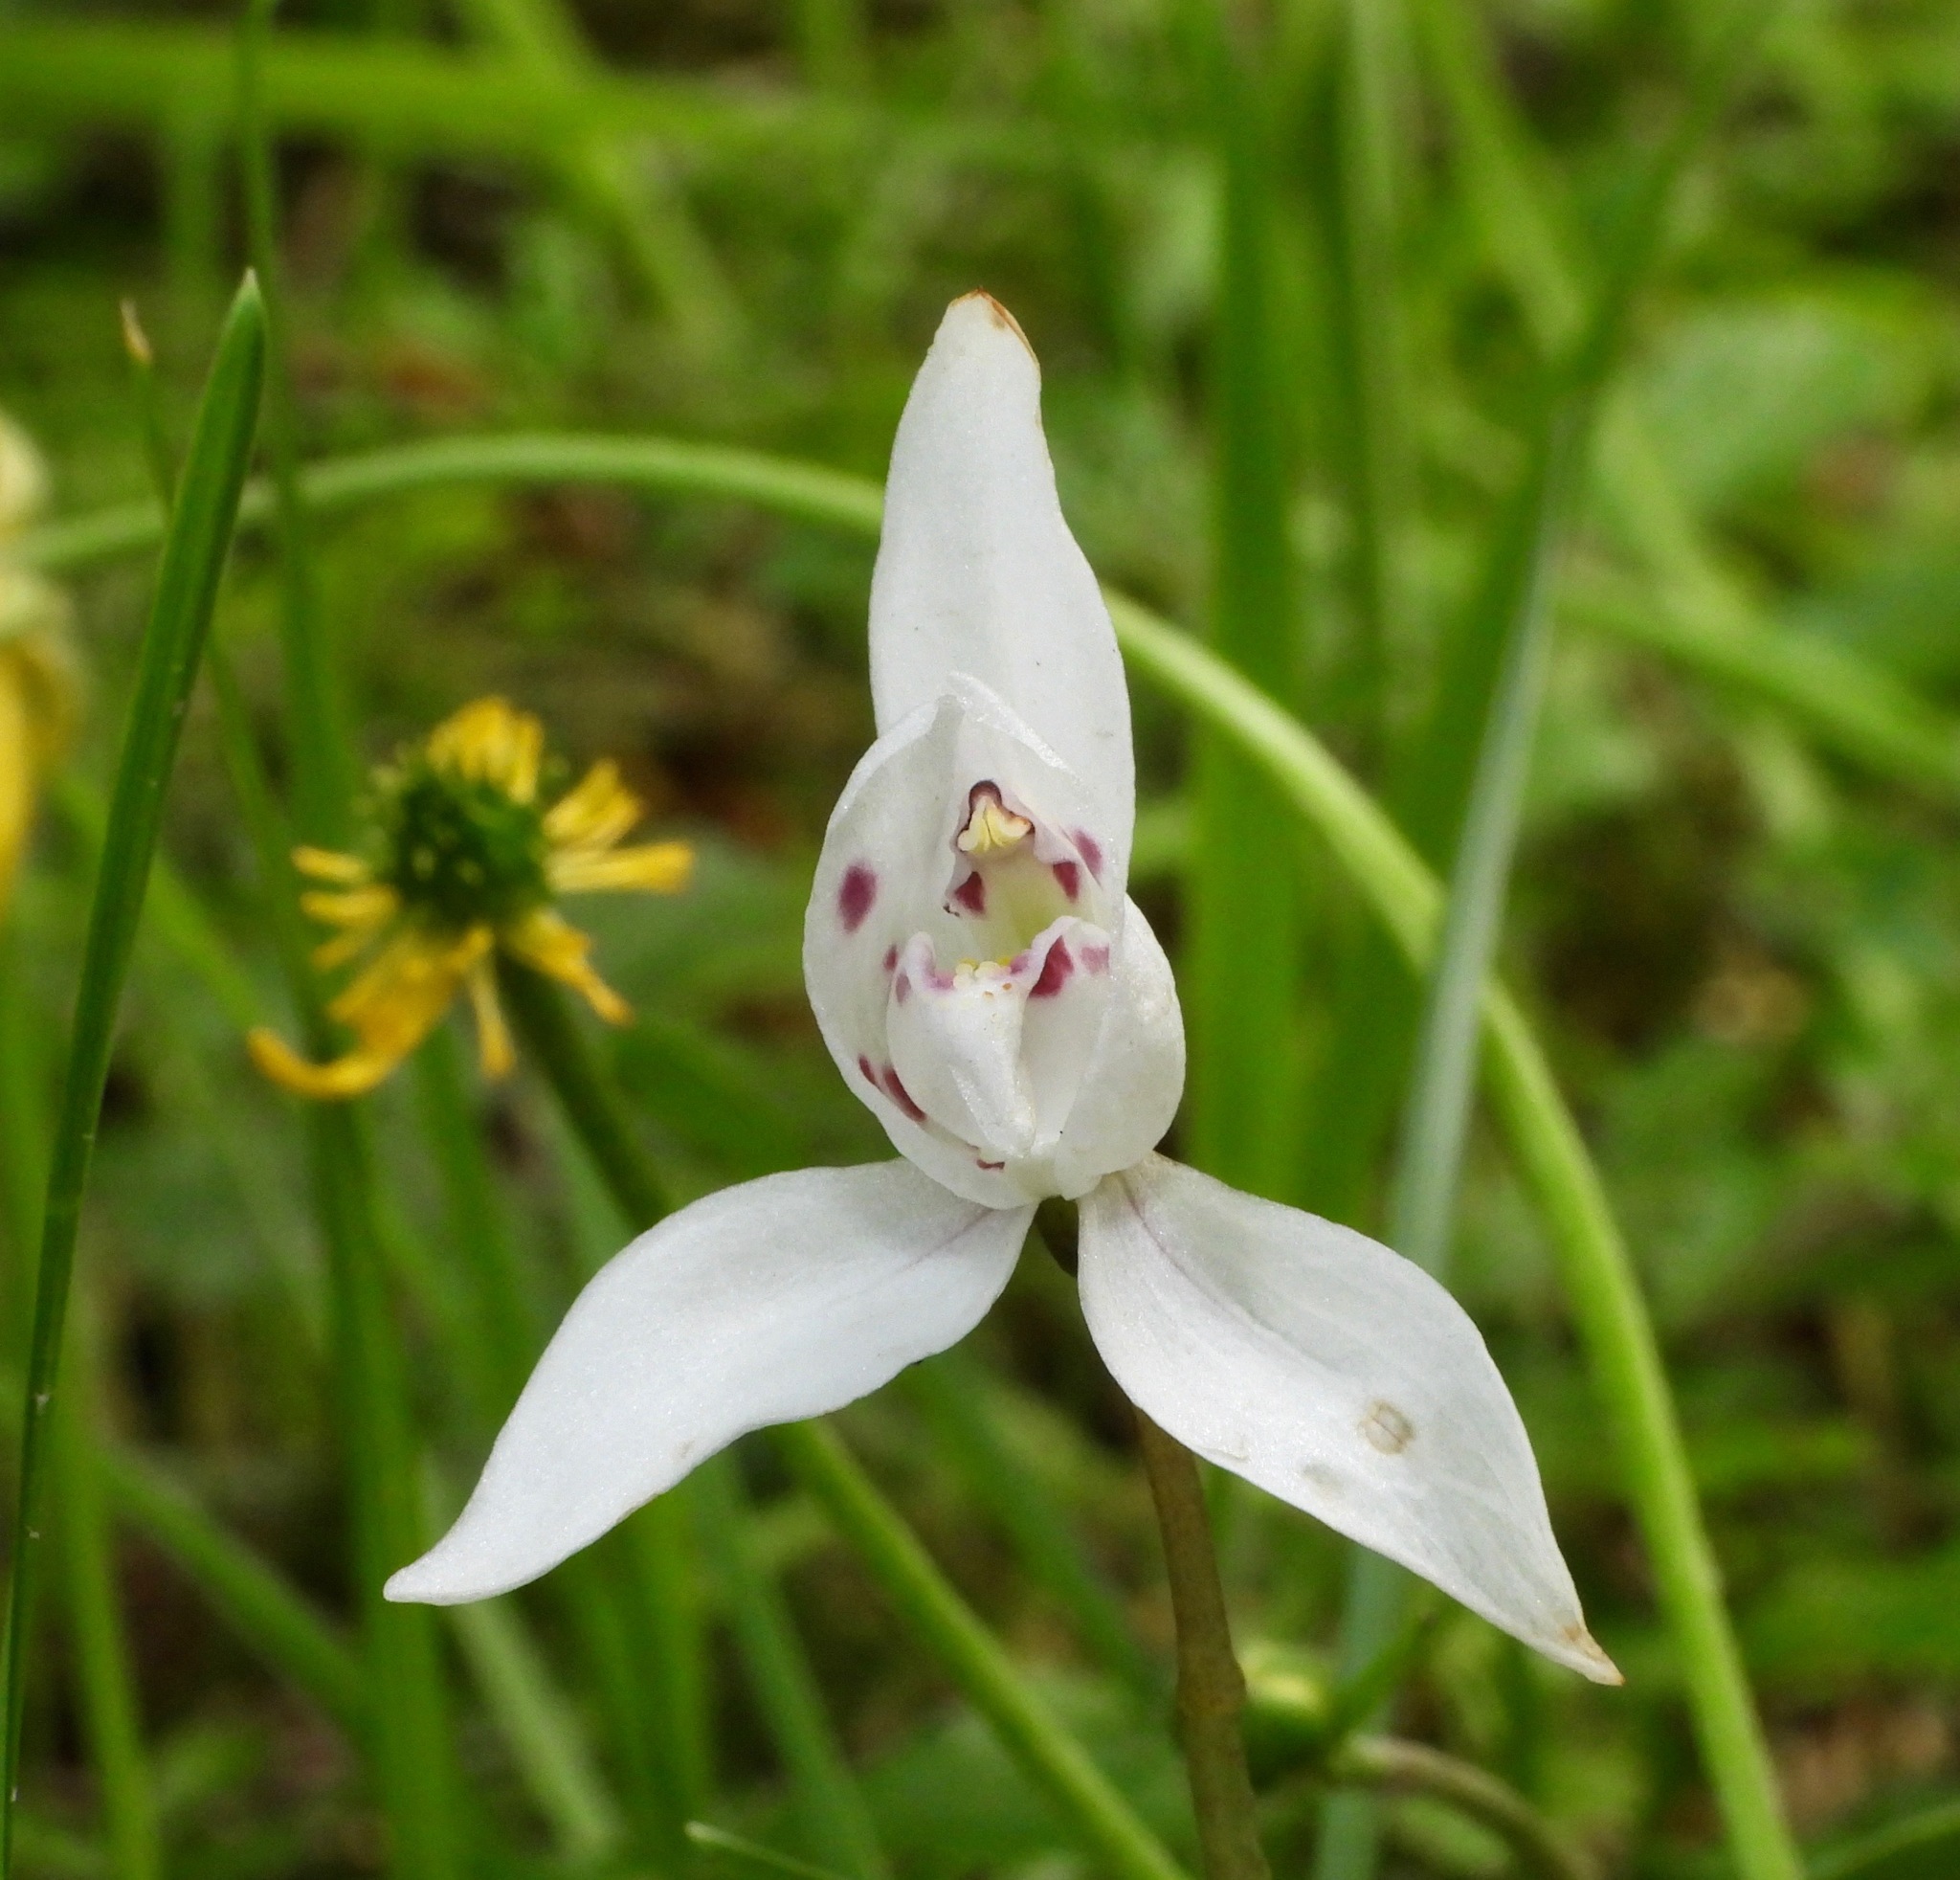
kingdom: Plantae
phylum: Tracheophyta
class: Liliopsida
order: Asparagales
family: Orchidaceae
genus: Codonorchis
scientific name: Codonorchis lessonii
